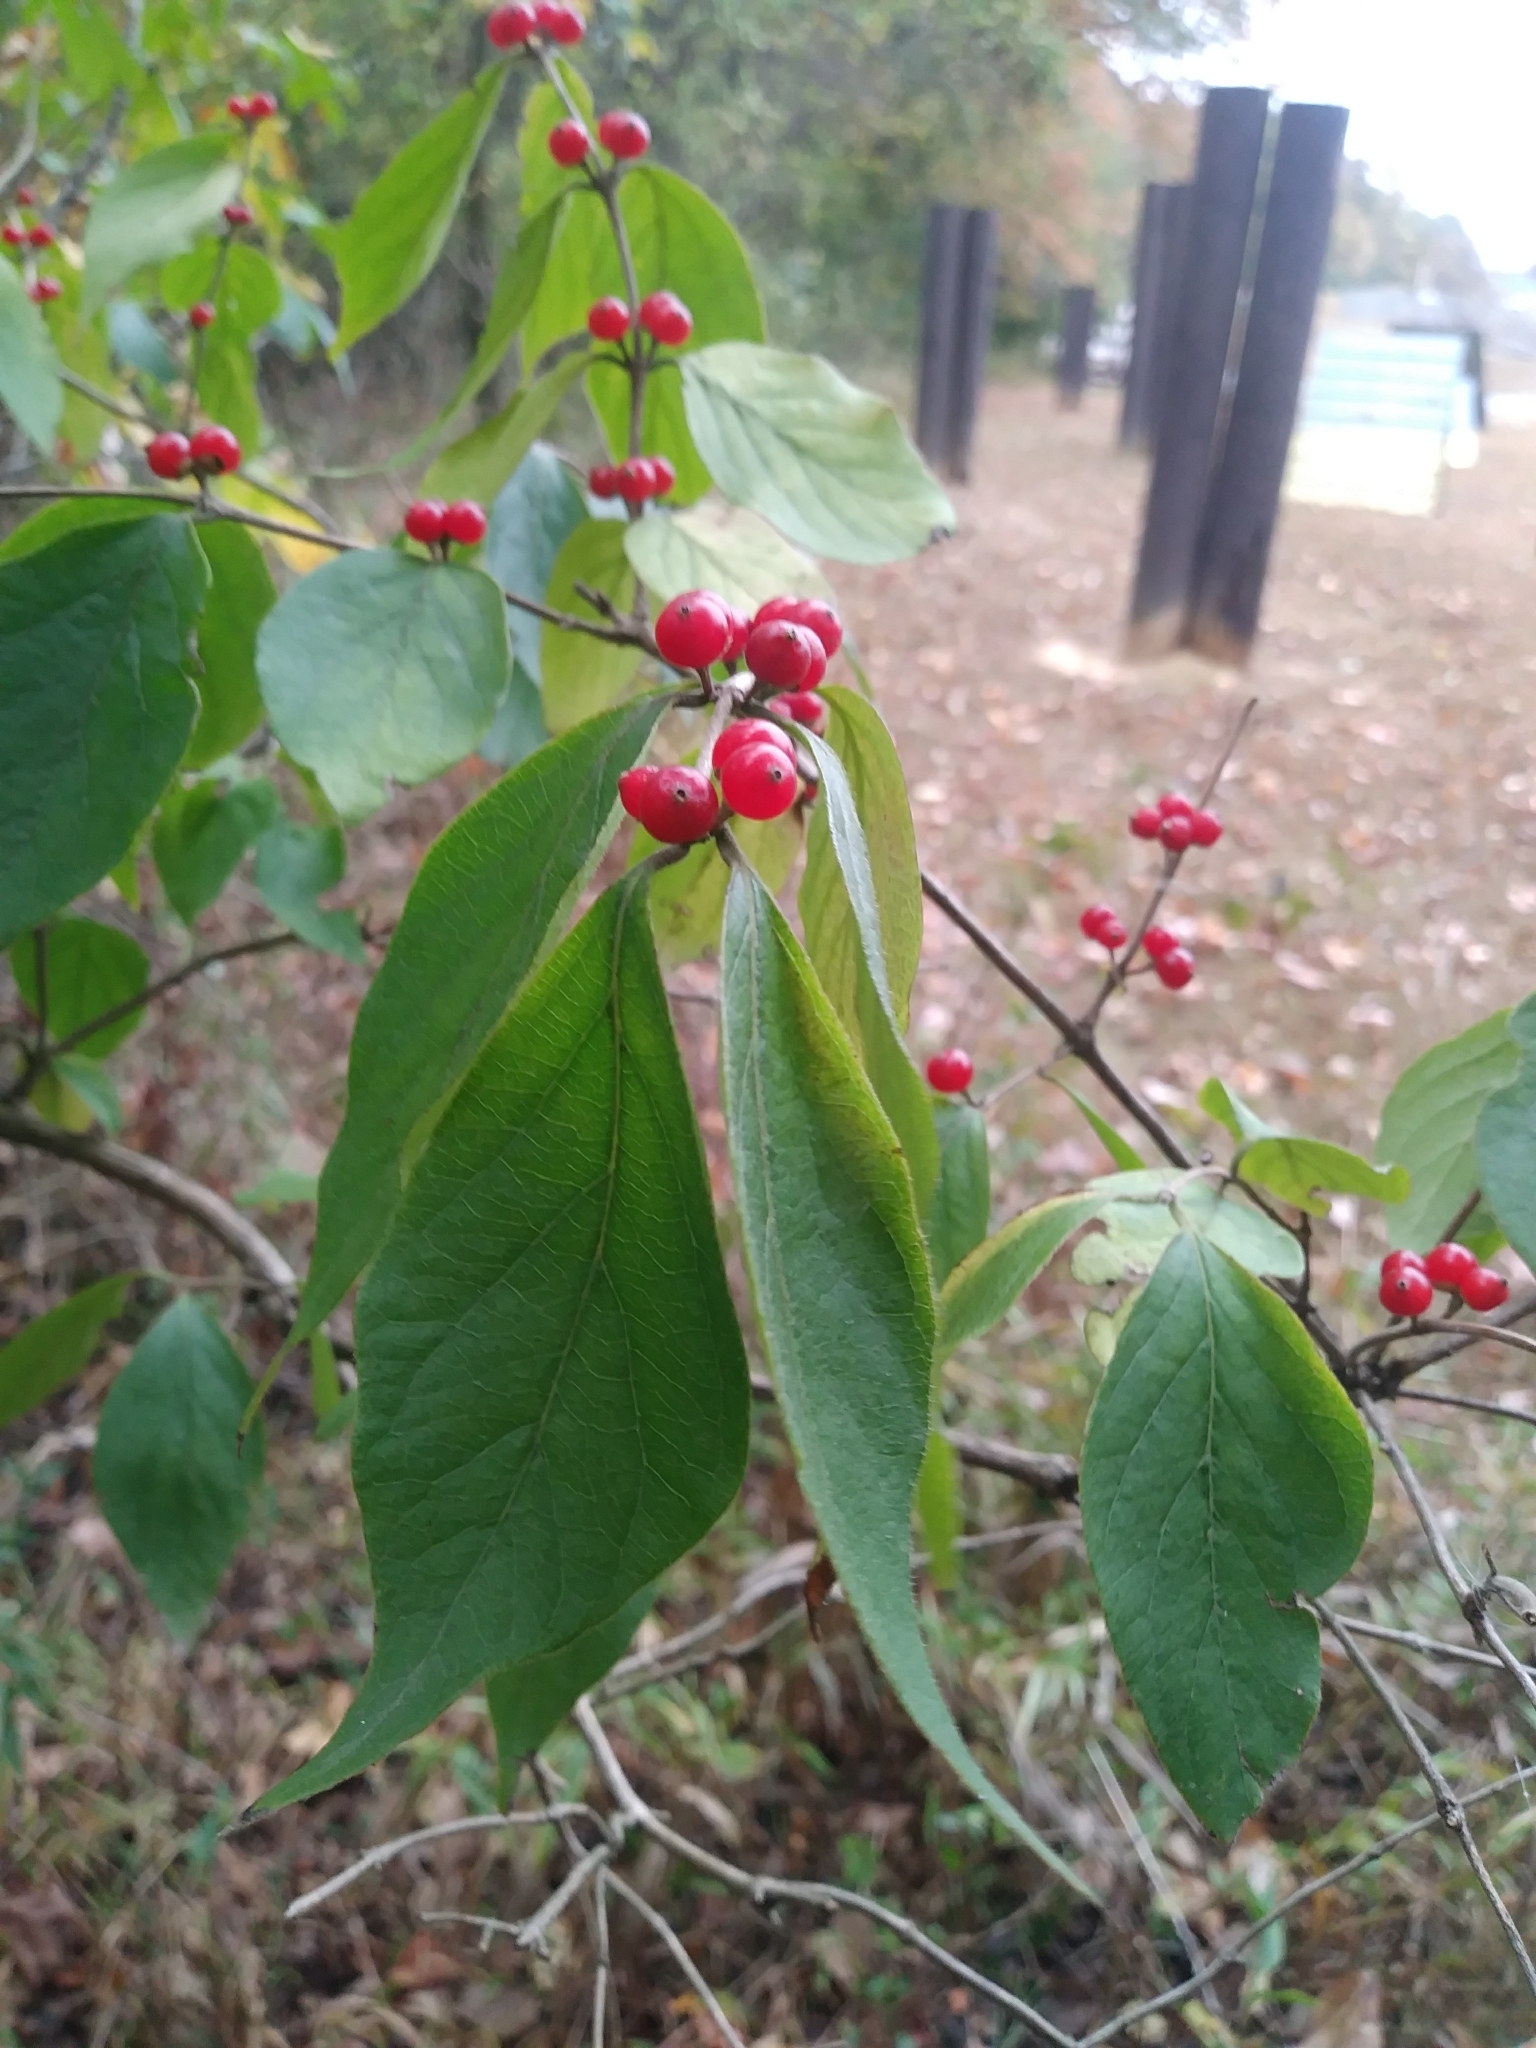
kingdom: Plantae
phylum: Tracheophyta
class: Magnoliopsida
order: Dipsacales
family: Caprifoliaceae
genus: Lonicera
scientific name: Lonicera maackii
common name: Amur honeysuckle
